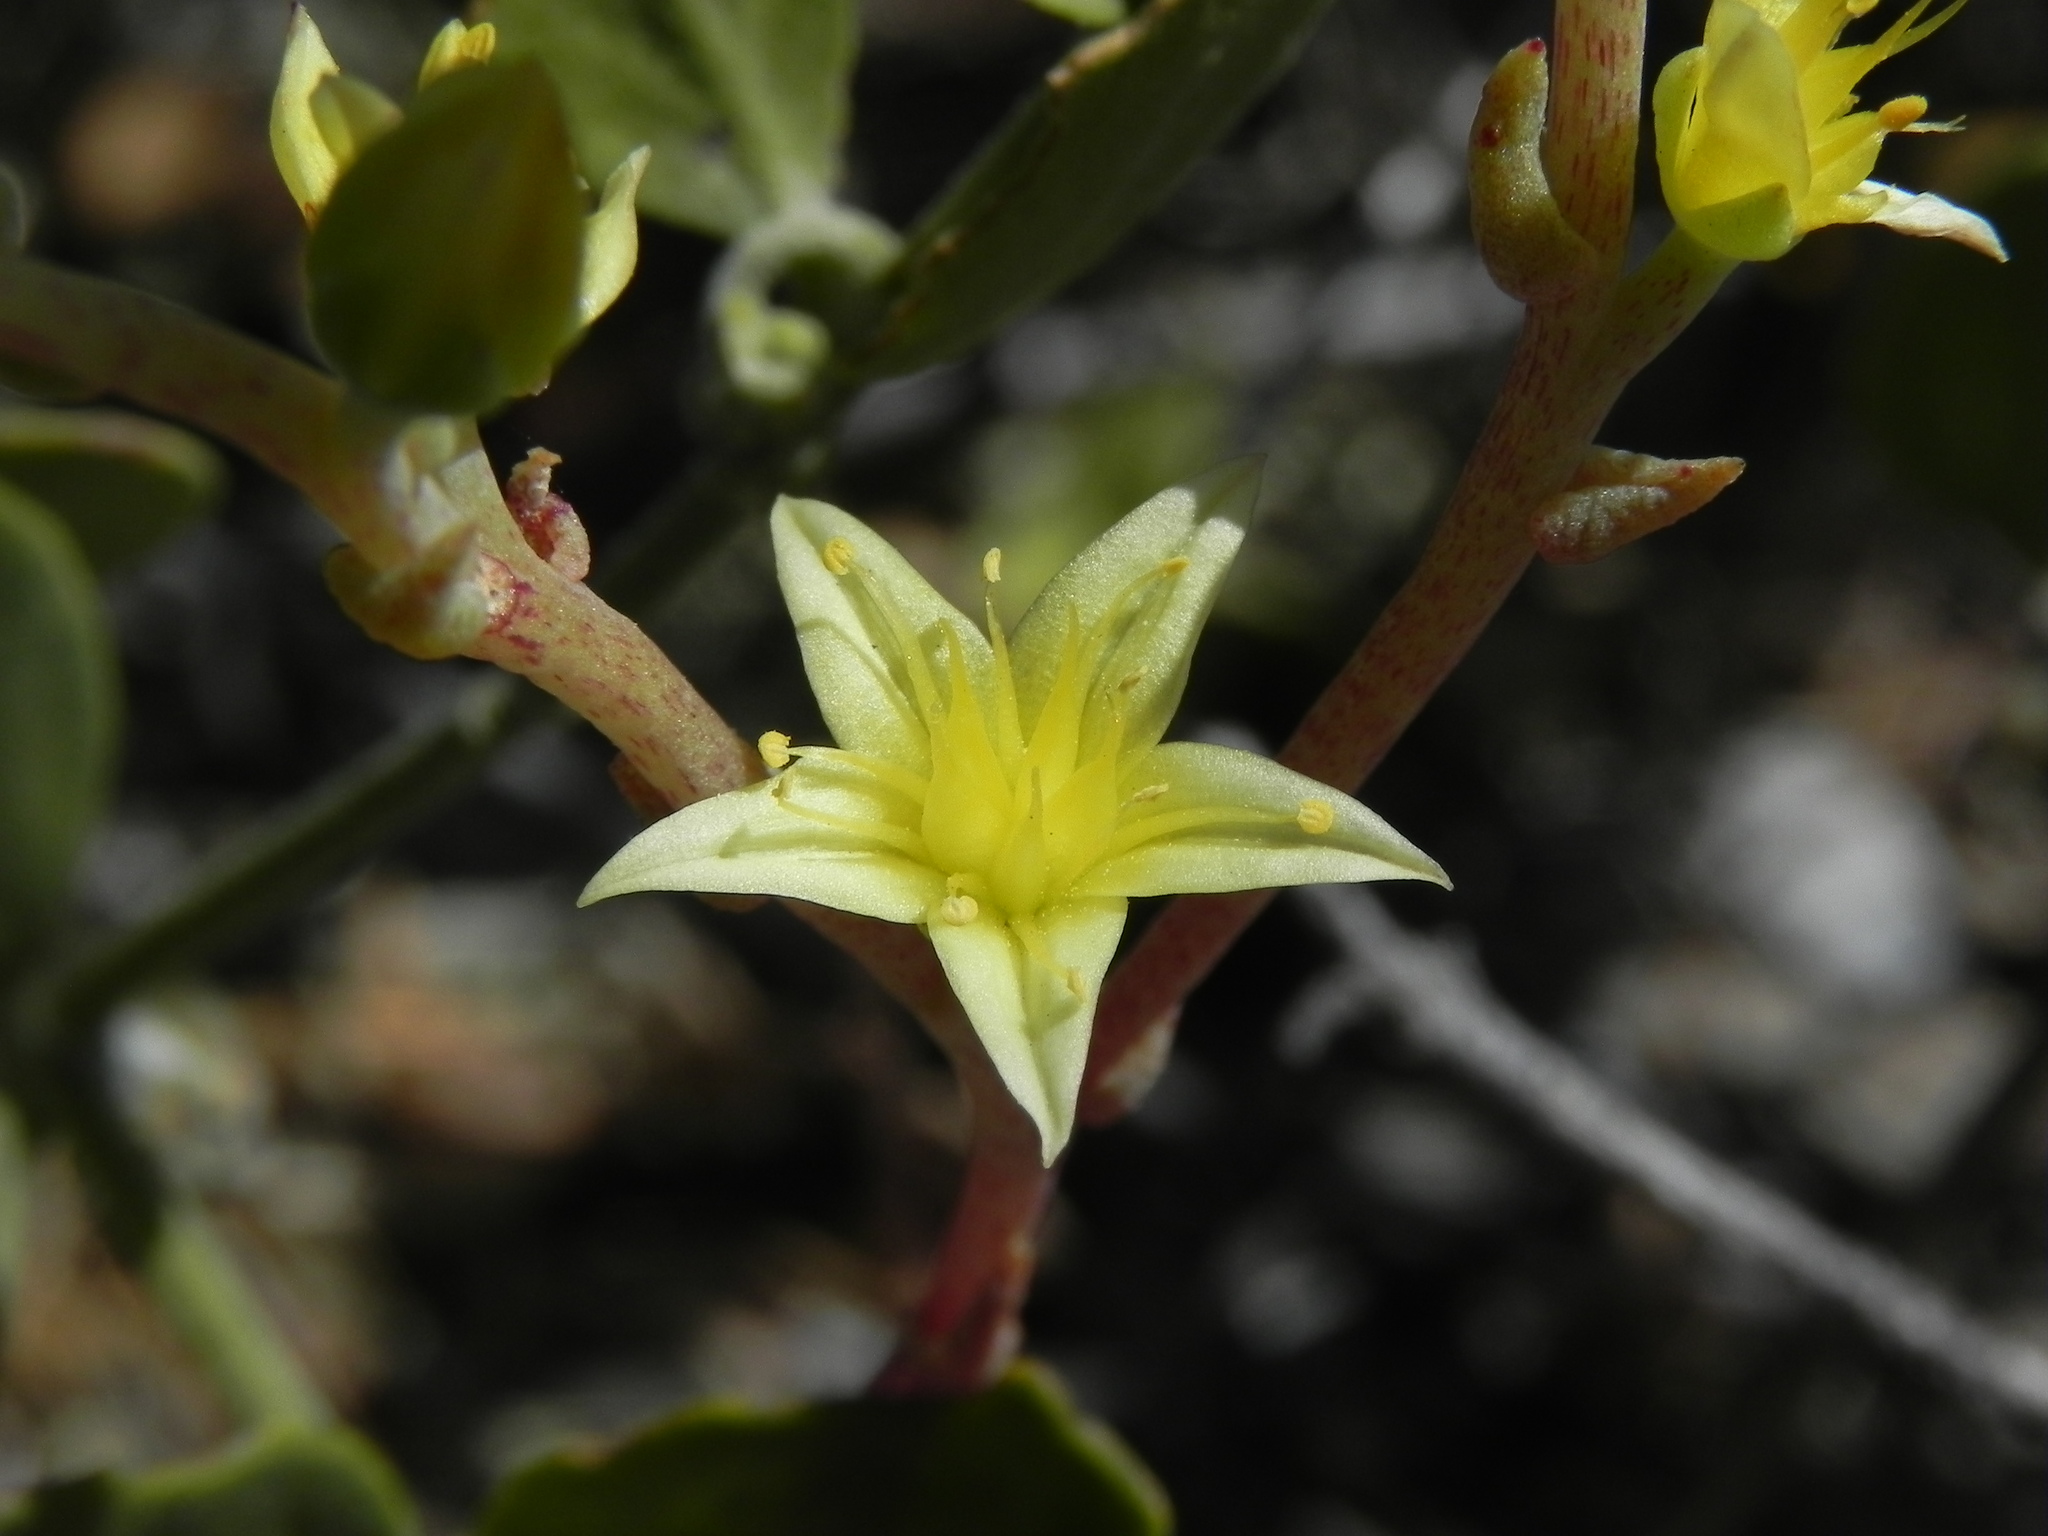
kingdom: Plantae
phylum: Tracheophyta
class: Magnoliopsida
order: Saxifragales
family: Crassulaceae
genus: Dudleya
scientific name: Dudleya variegata
